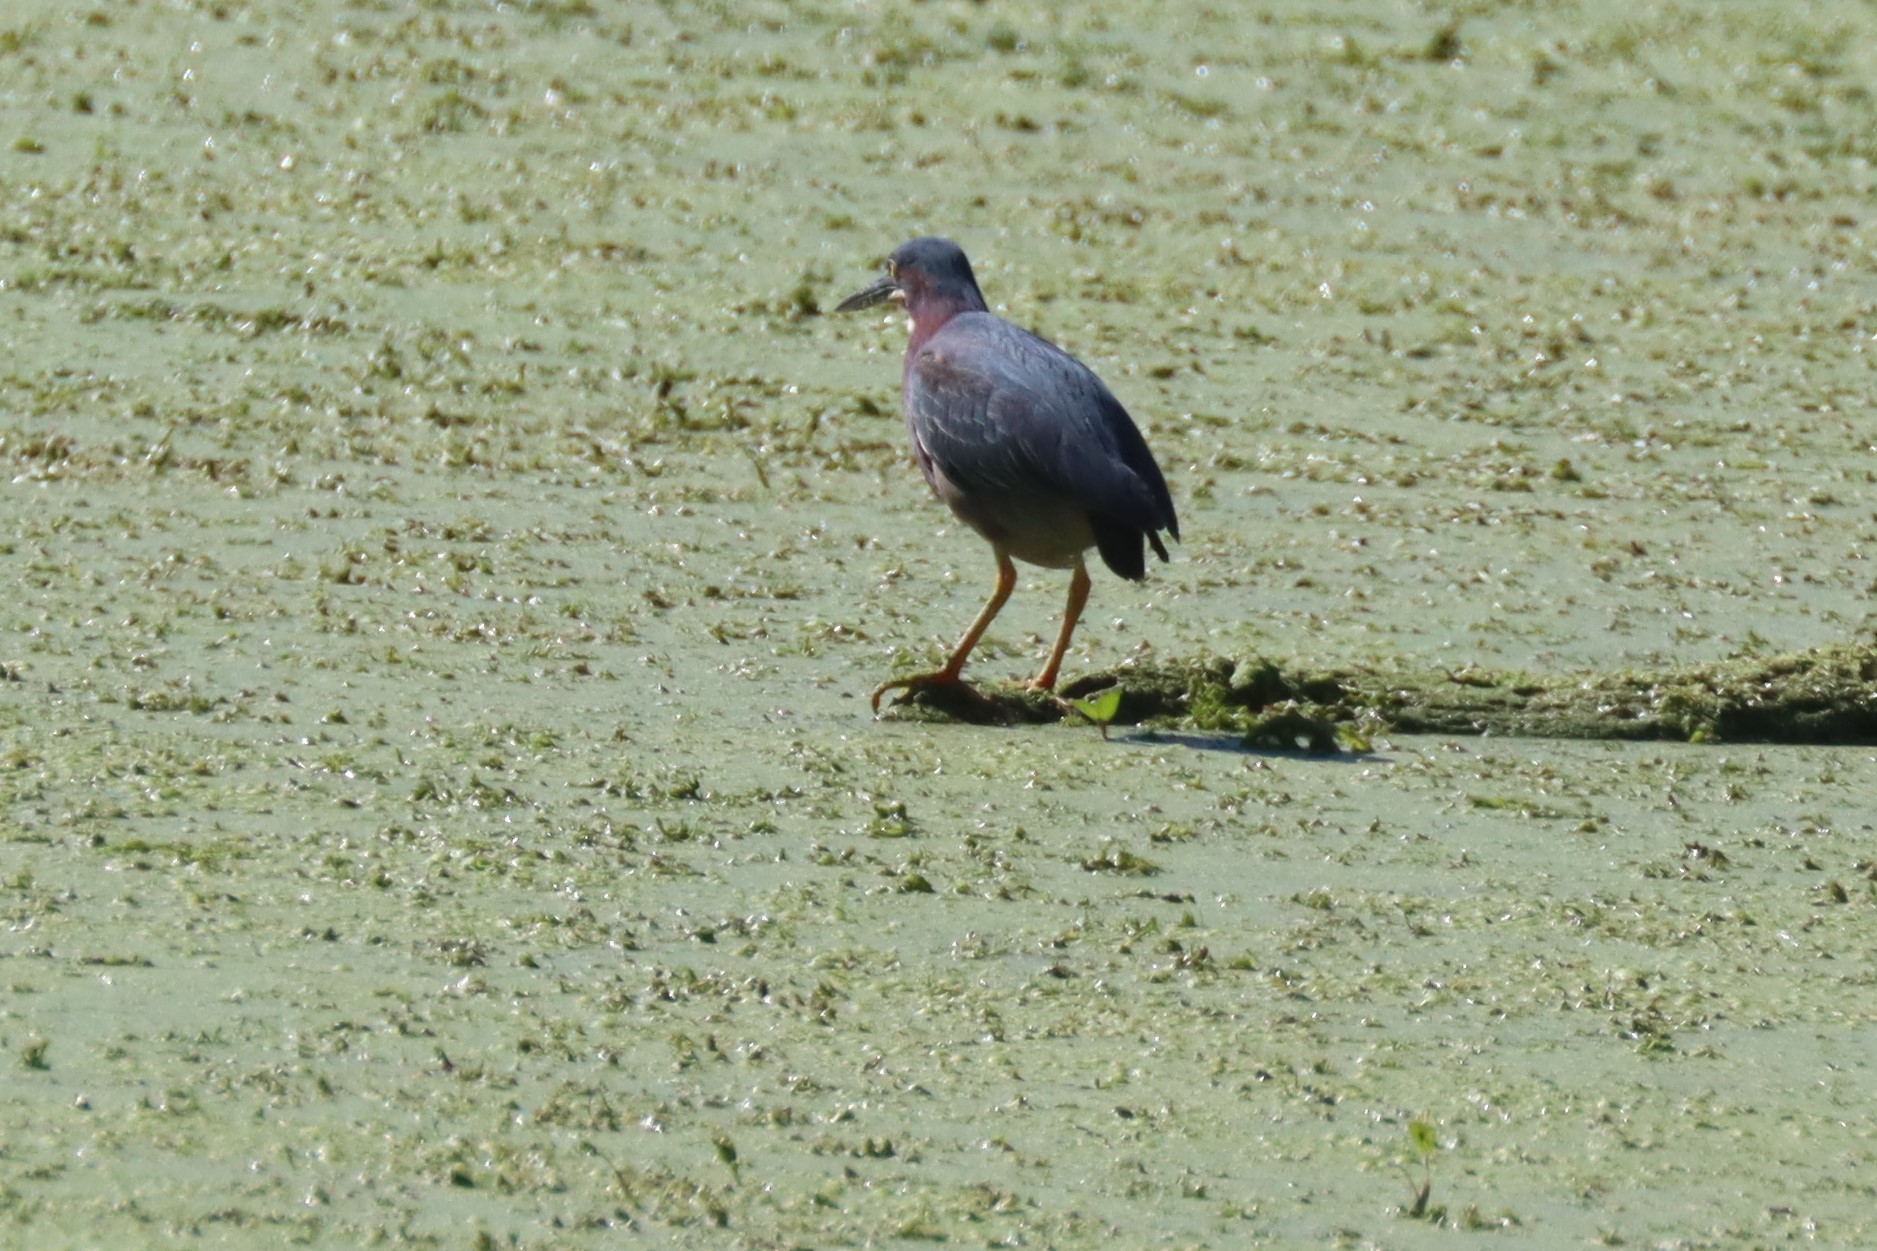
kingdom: Animalia
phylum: Chordata
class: Aves
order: Pelecaniformes
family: Ardeidae
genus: Butorides
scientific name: Butorides virescens
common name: Green heron
